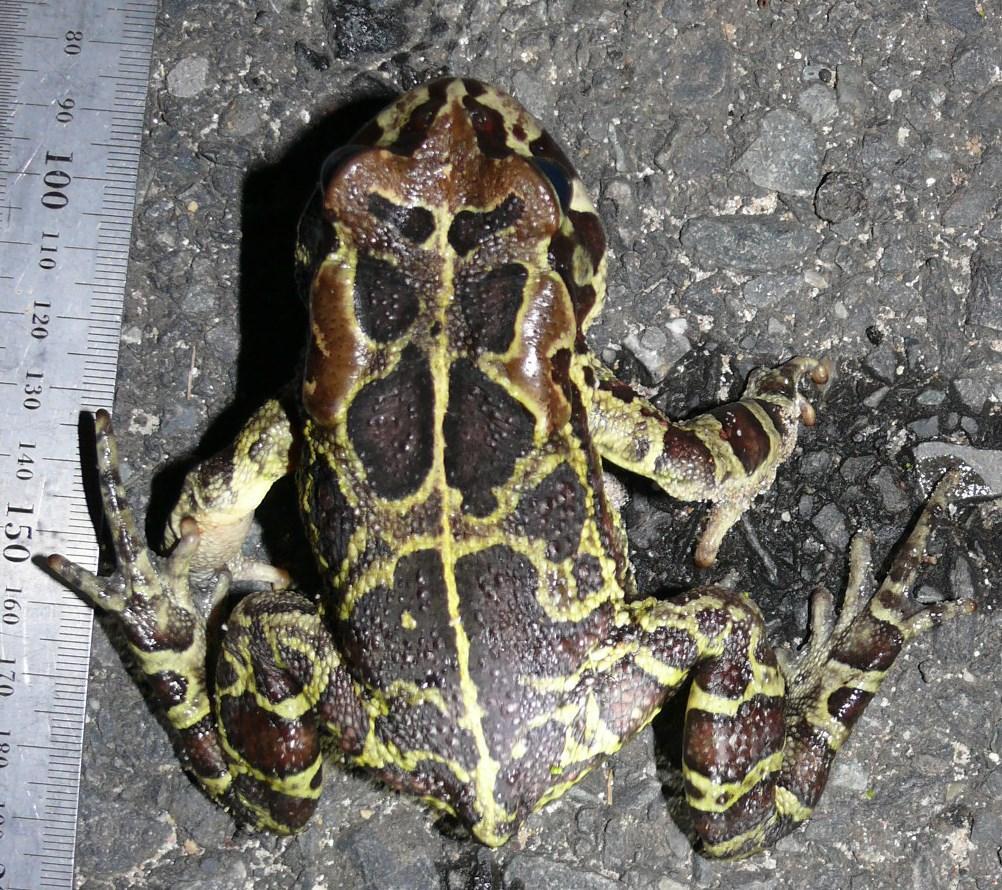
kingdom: Animalia
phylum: Chordata
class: Amphibia
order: Anura
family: Bufonidae
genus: Sclerophrys
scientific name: Sclerophrys pantherina
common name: Panther toad
